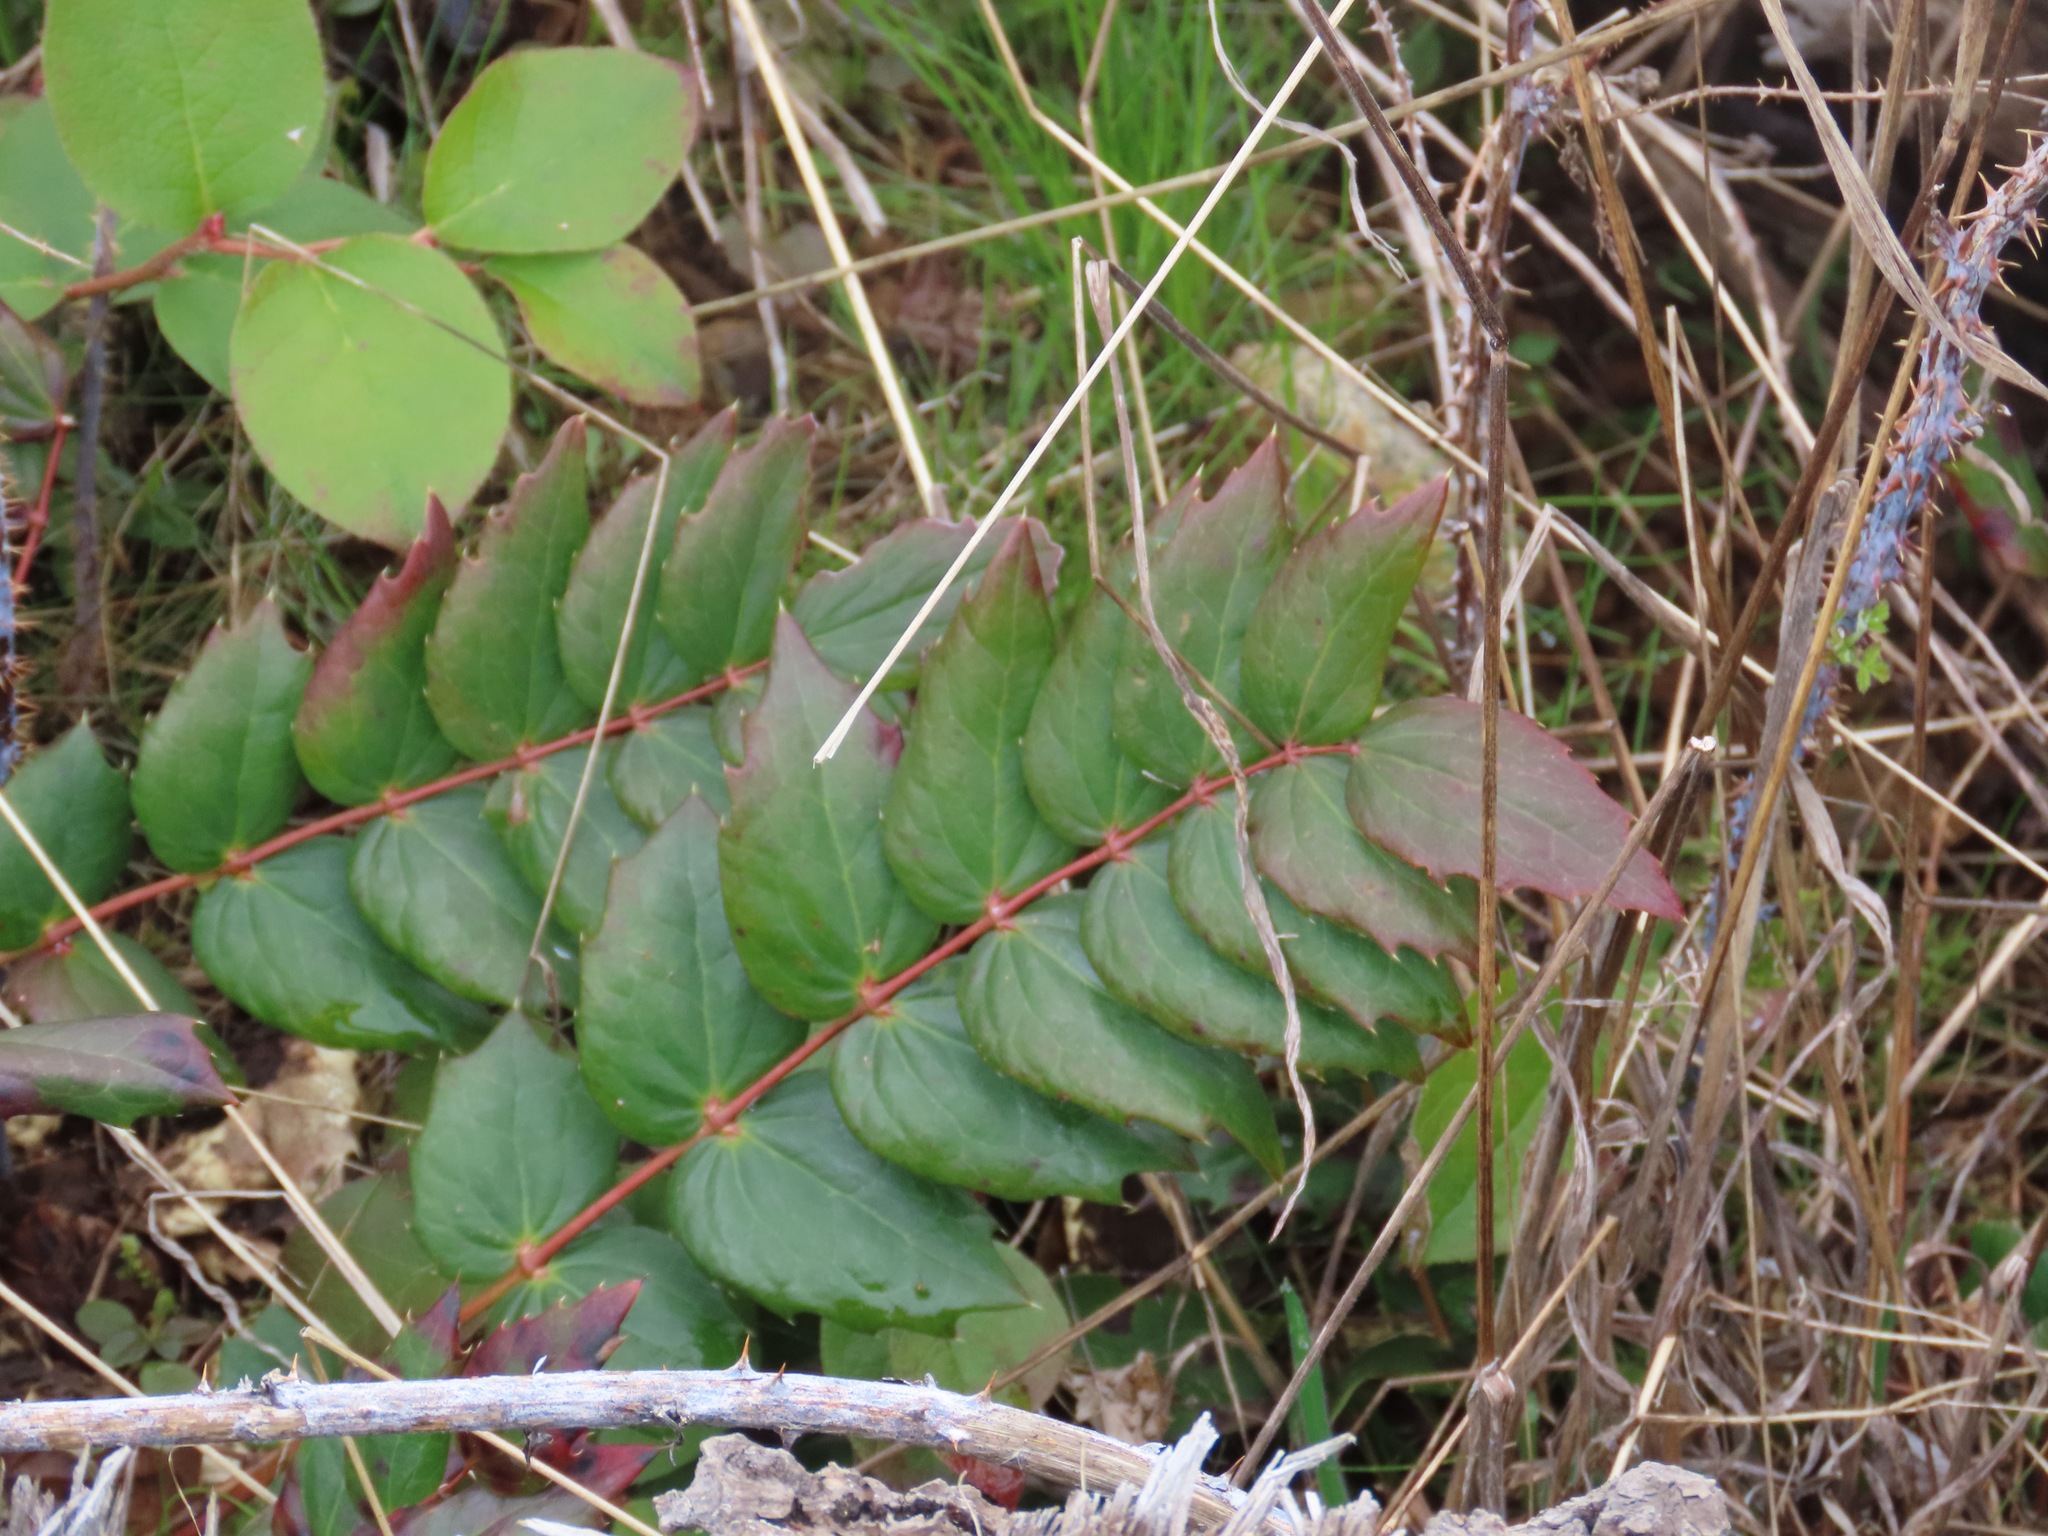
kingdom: Plantae
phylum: Tracheophyta
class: Magnoliopsida
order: Ranunculales
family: Berberidaceae
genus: Mahonia
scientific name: Mahonia nervosa
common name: Cascade oregon-grape
